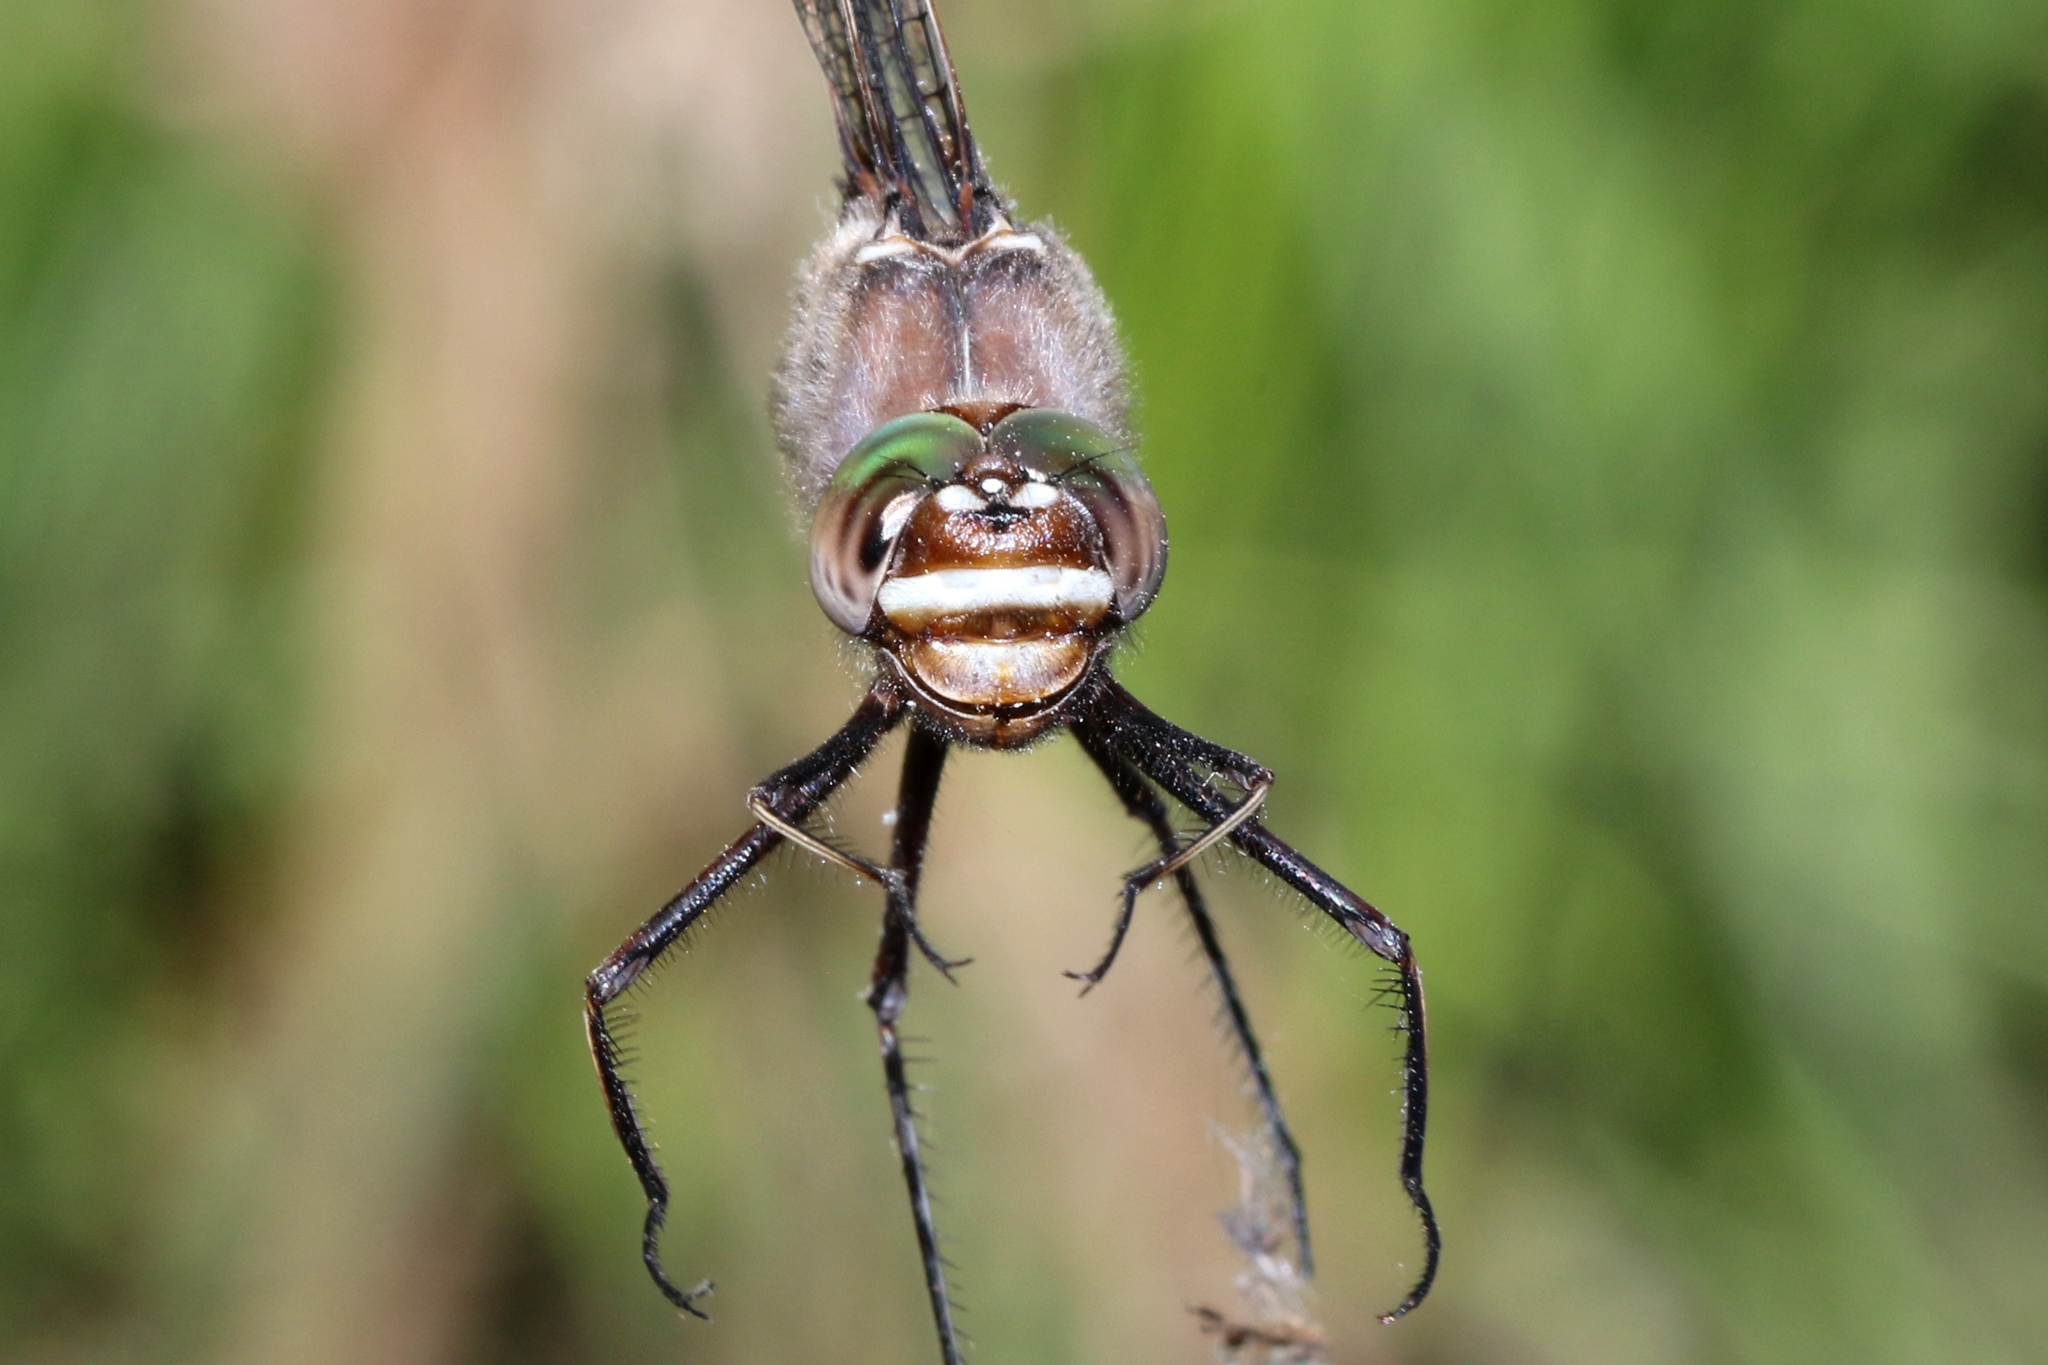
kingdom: Animalia
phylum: Arthropoda
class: Insecta
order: Odonata
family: Macromiidae
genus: Didymops
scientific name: Didymops transversa
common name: Stream cruiser
